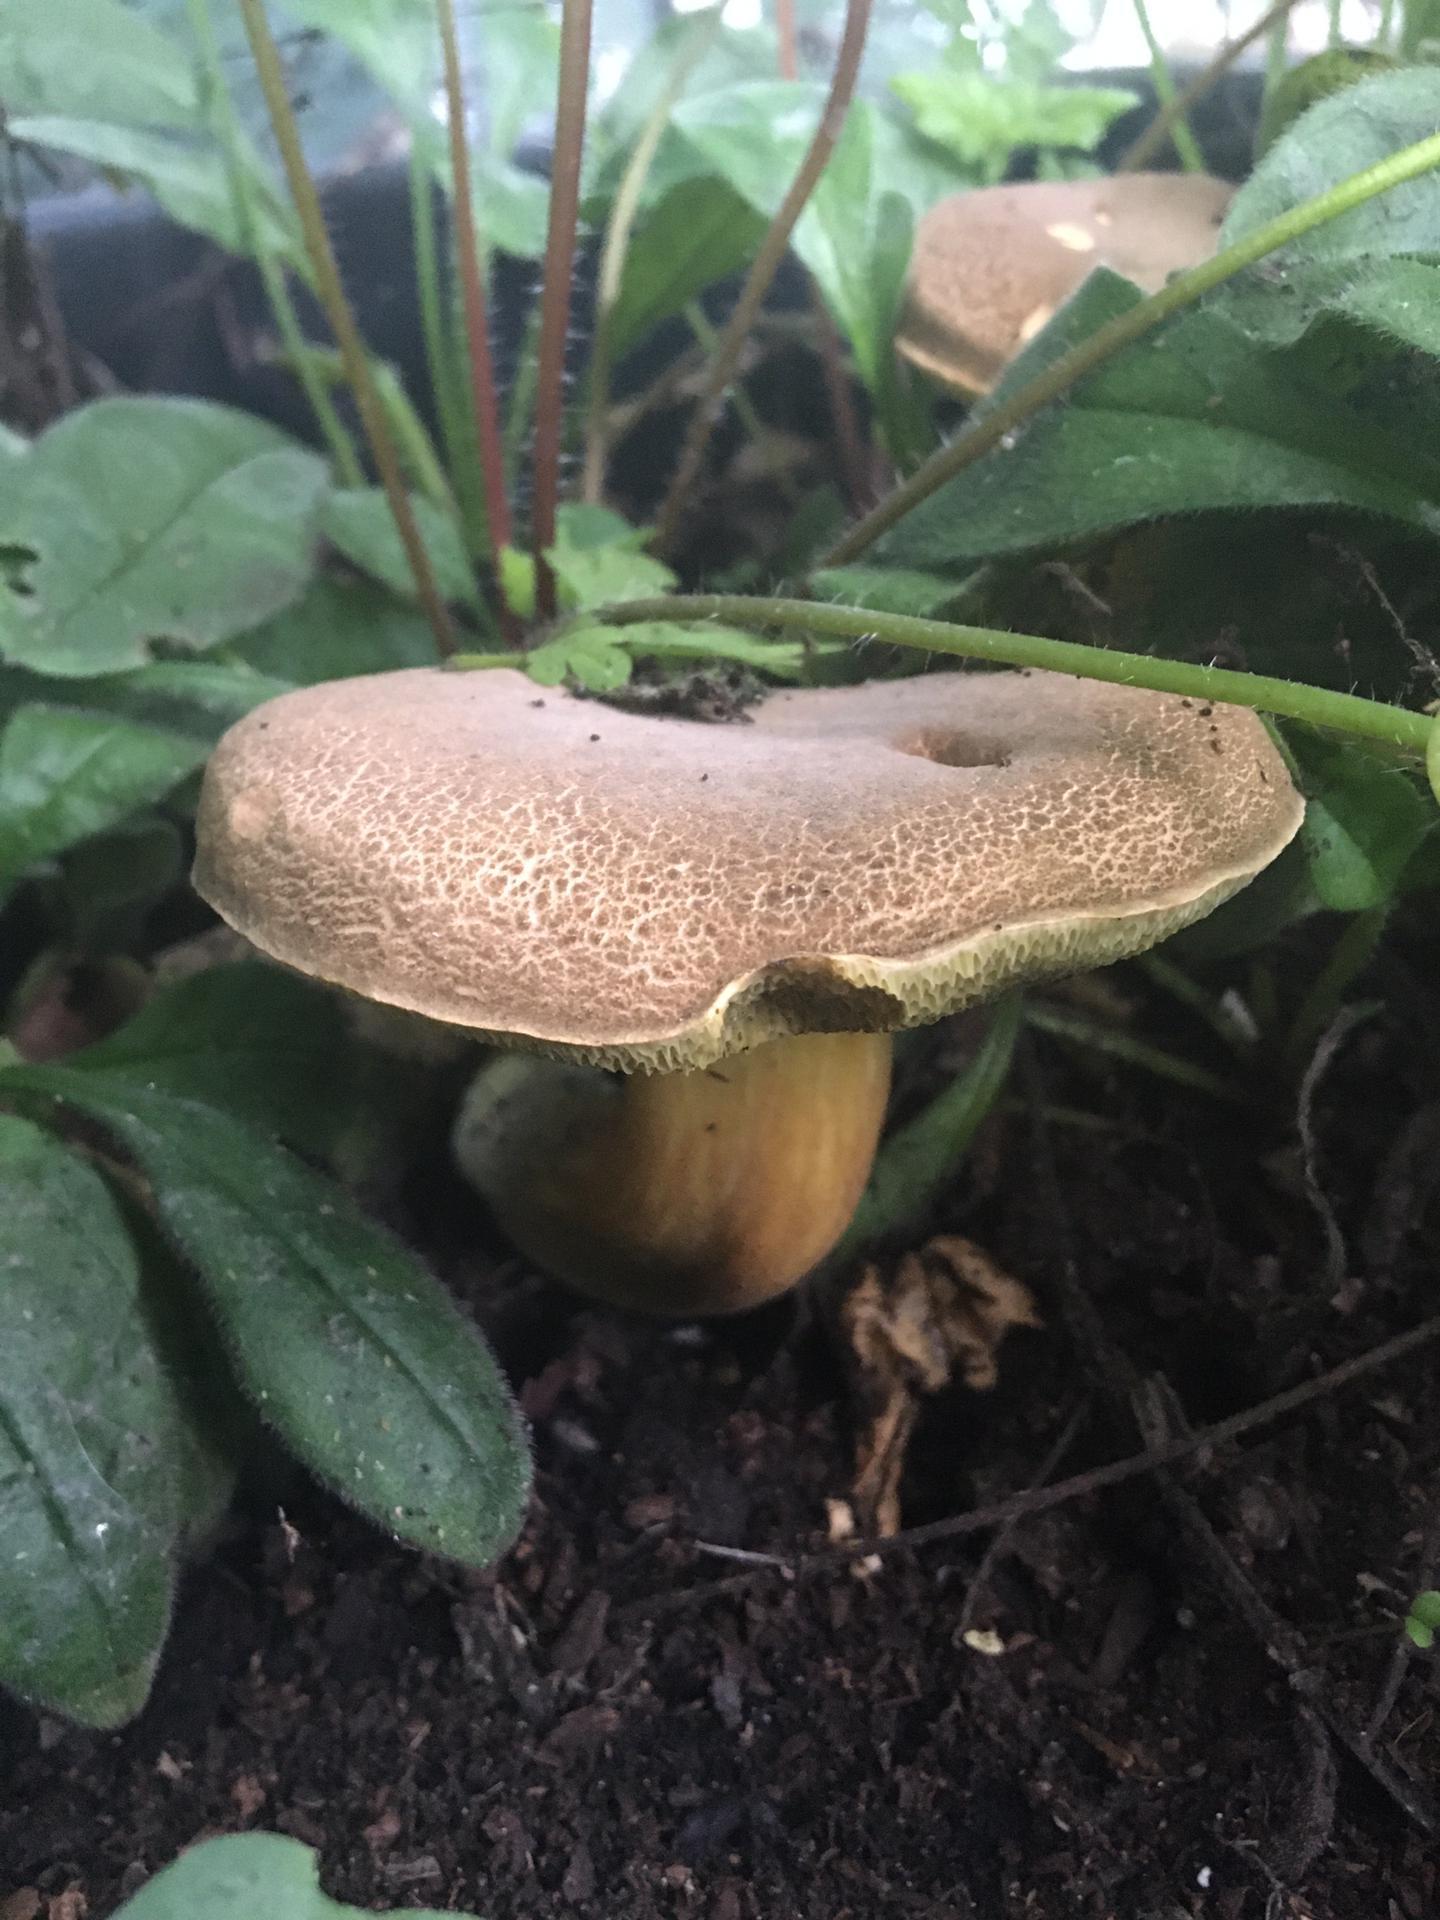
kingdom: Fungi
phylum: Basidiomycota
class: Agaricomycetes
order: Boletales
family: Boletaceae
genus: Xerocomellus
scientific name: Xerocomellus chrysenteron
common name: Red-cracking bolete
